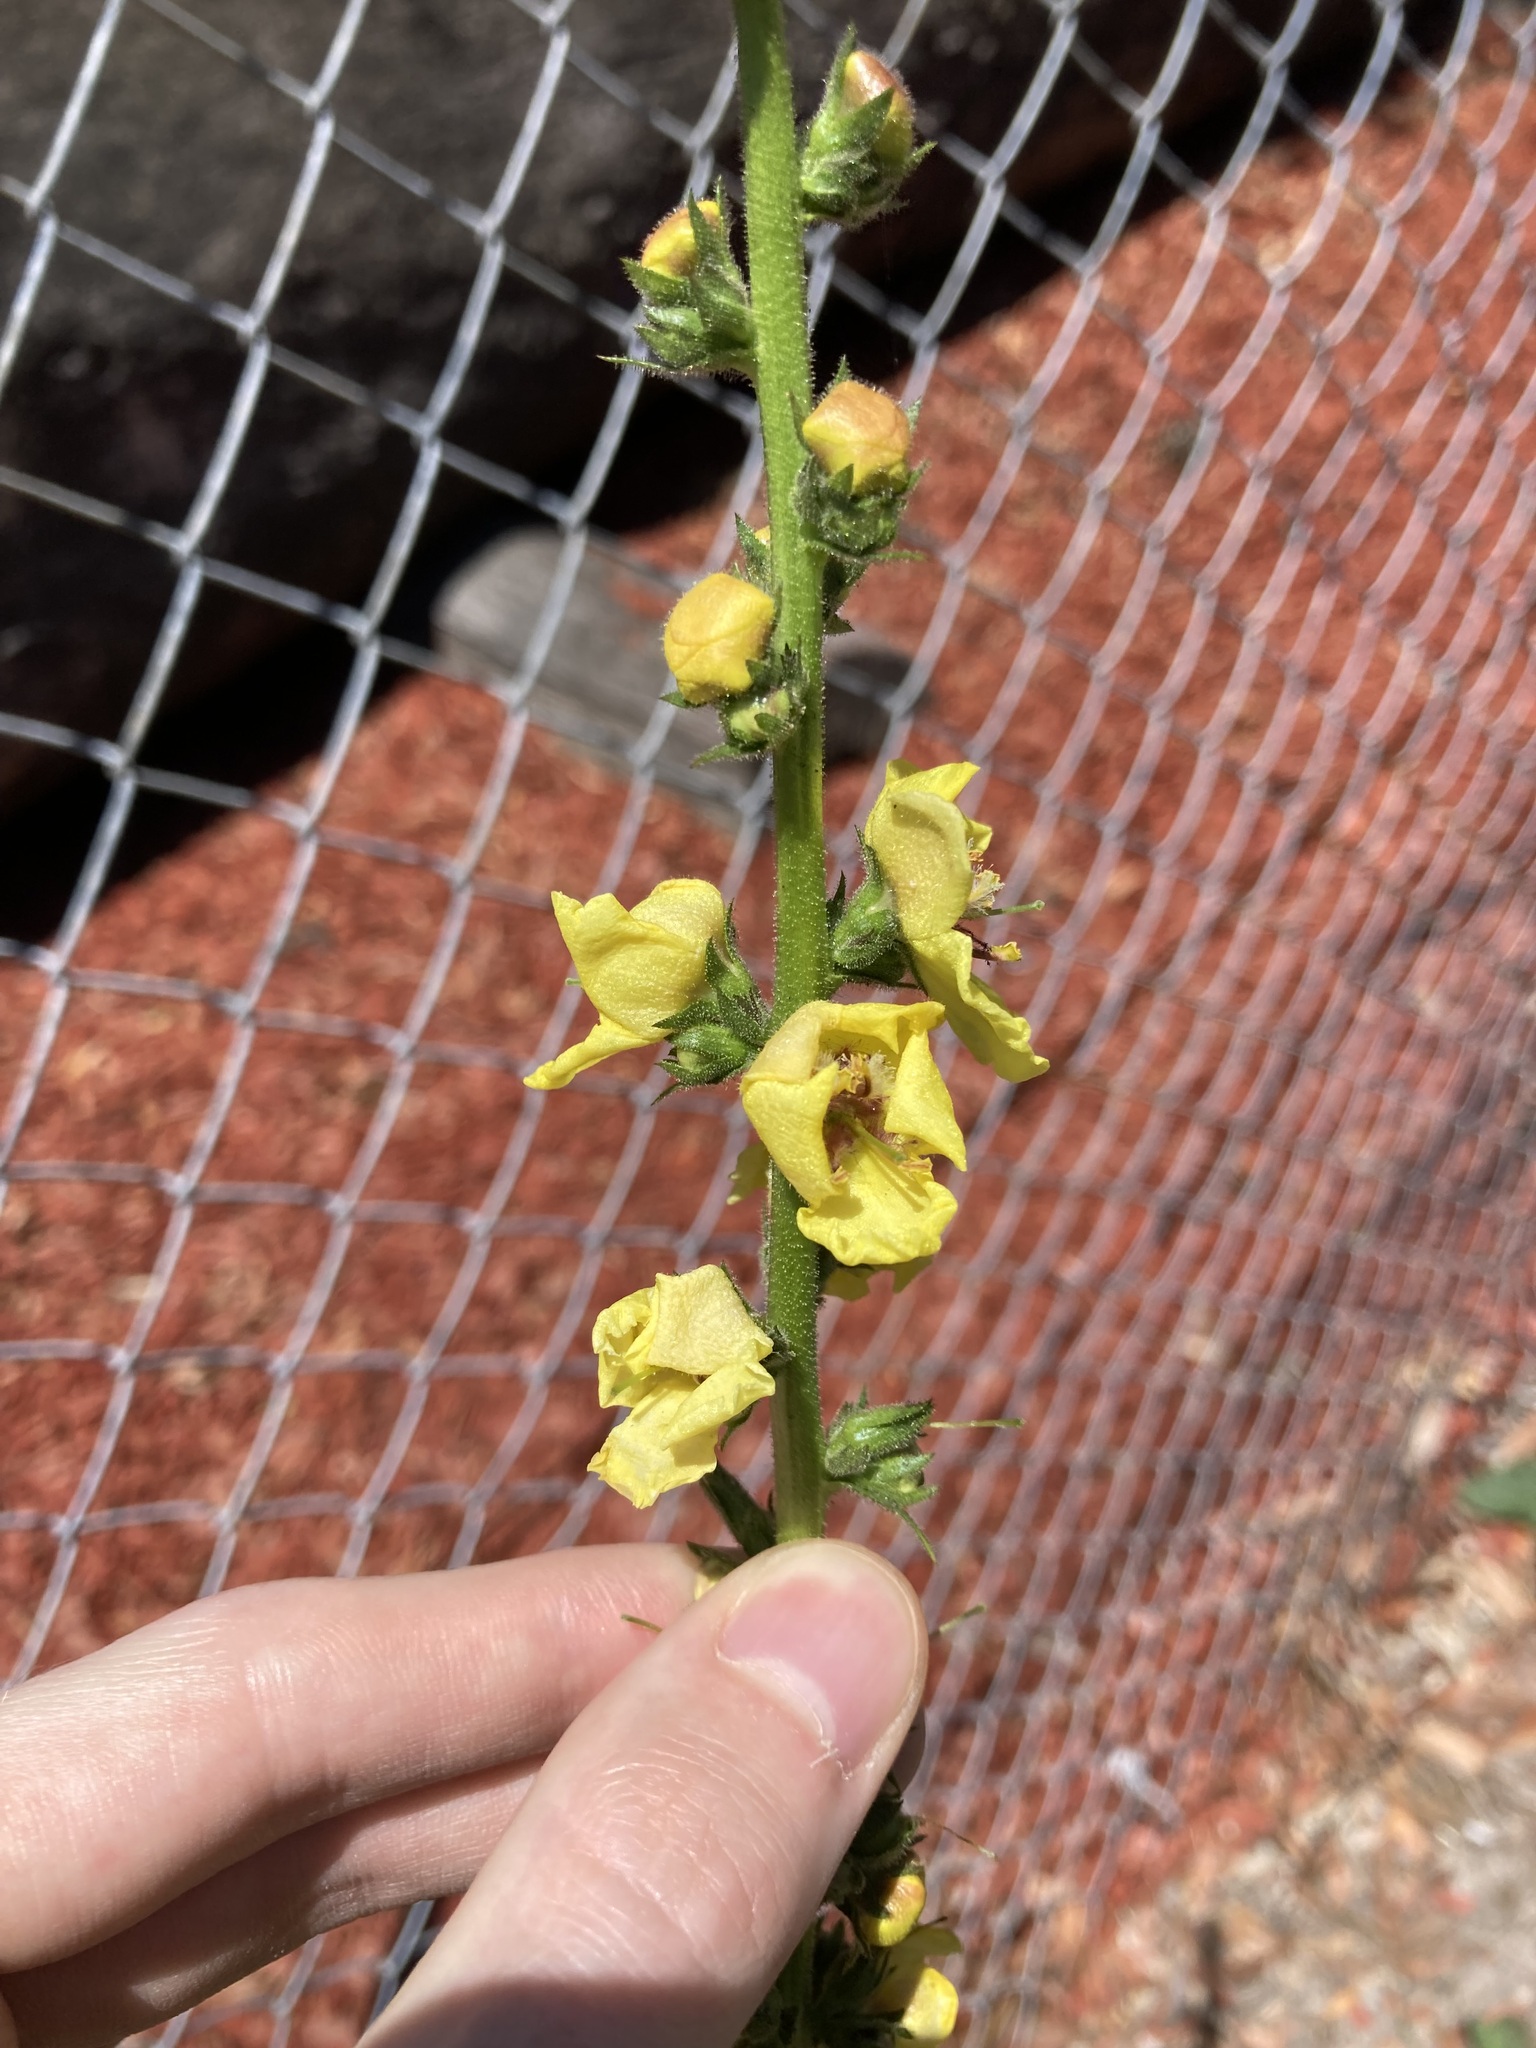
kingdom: Plantae
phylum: Tracheophyta
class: Magnoliopsida
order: Lamiales
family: Scrophulariaceae
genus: Verbascum
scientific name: Verbascum virgatum
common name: Twiggy mullein
